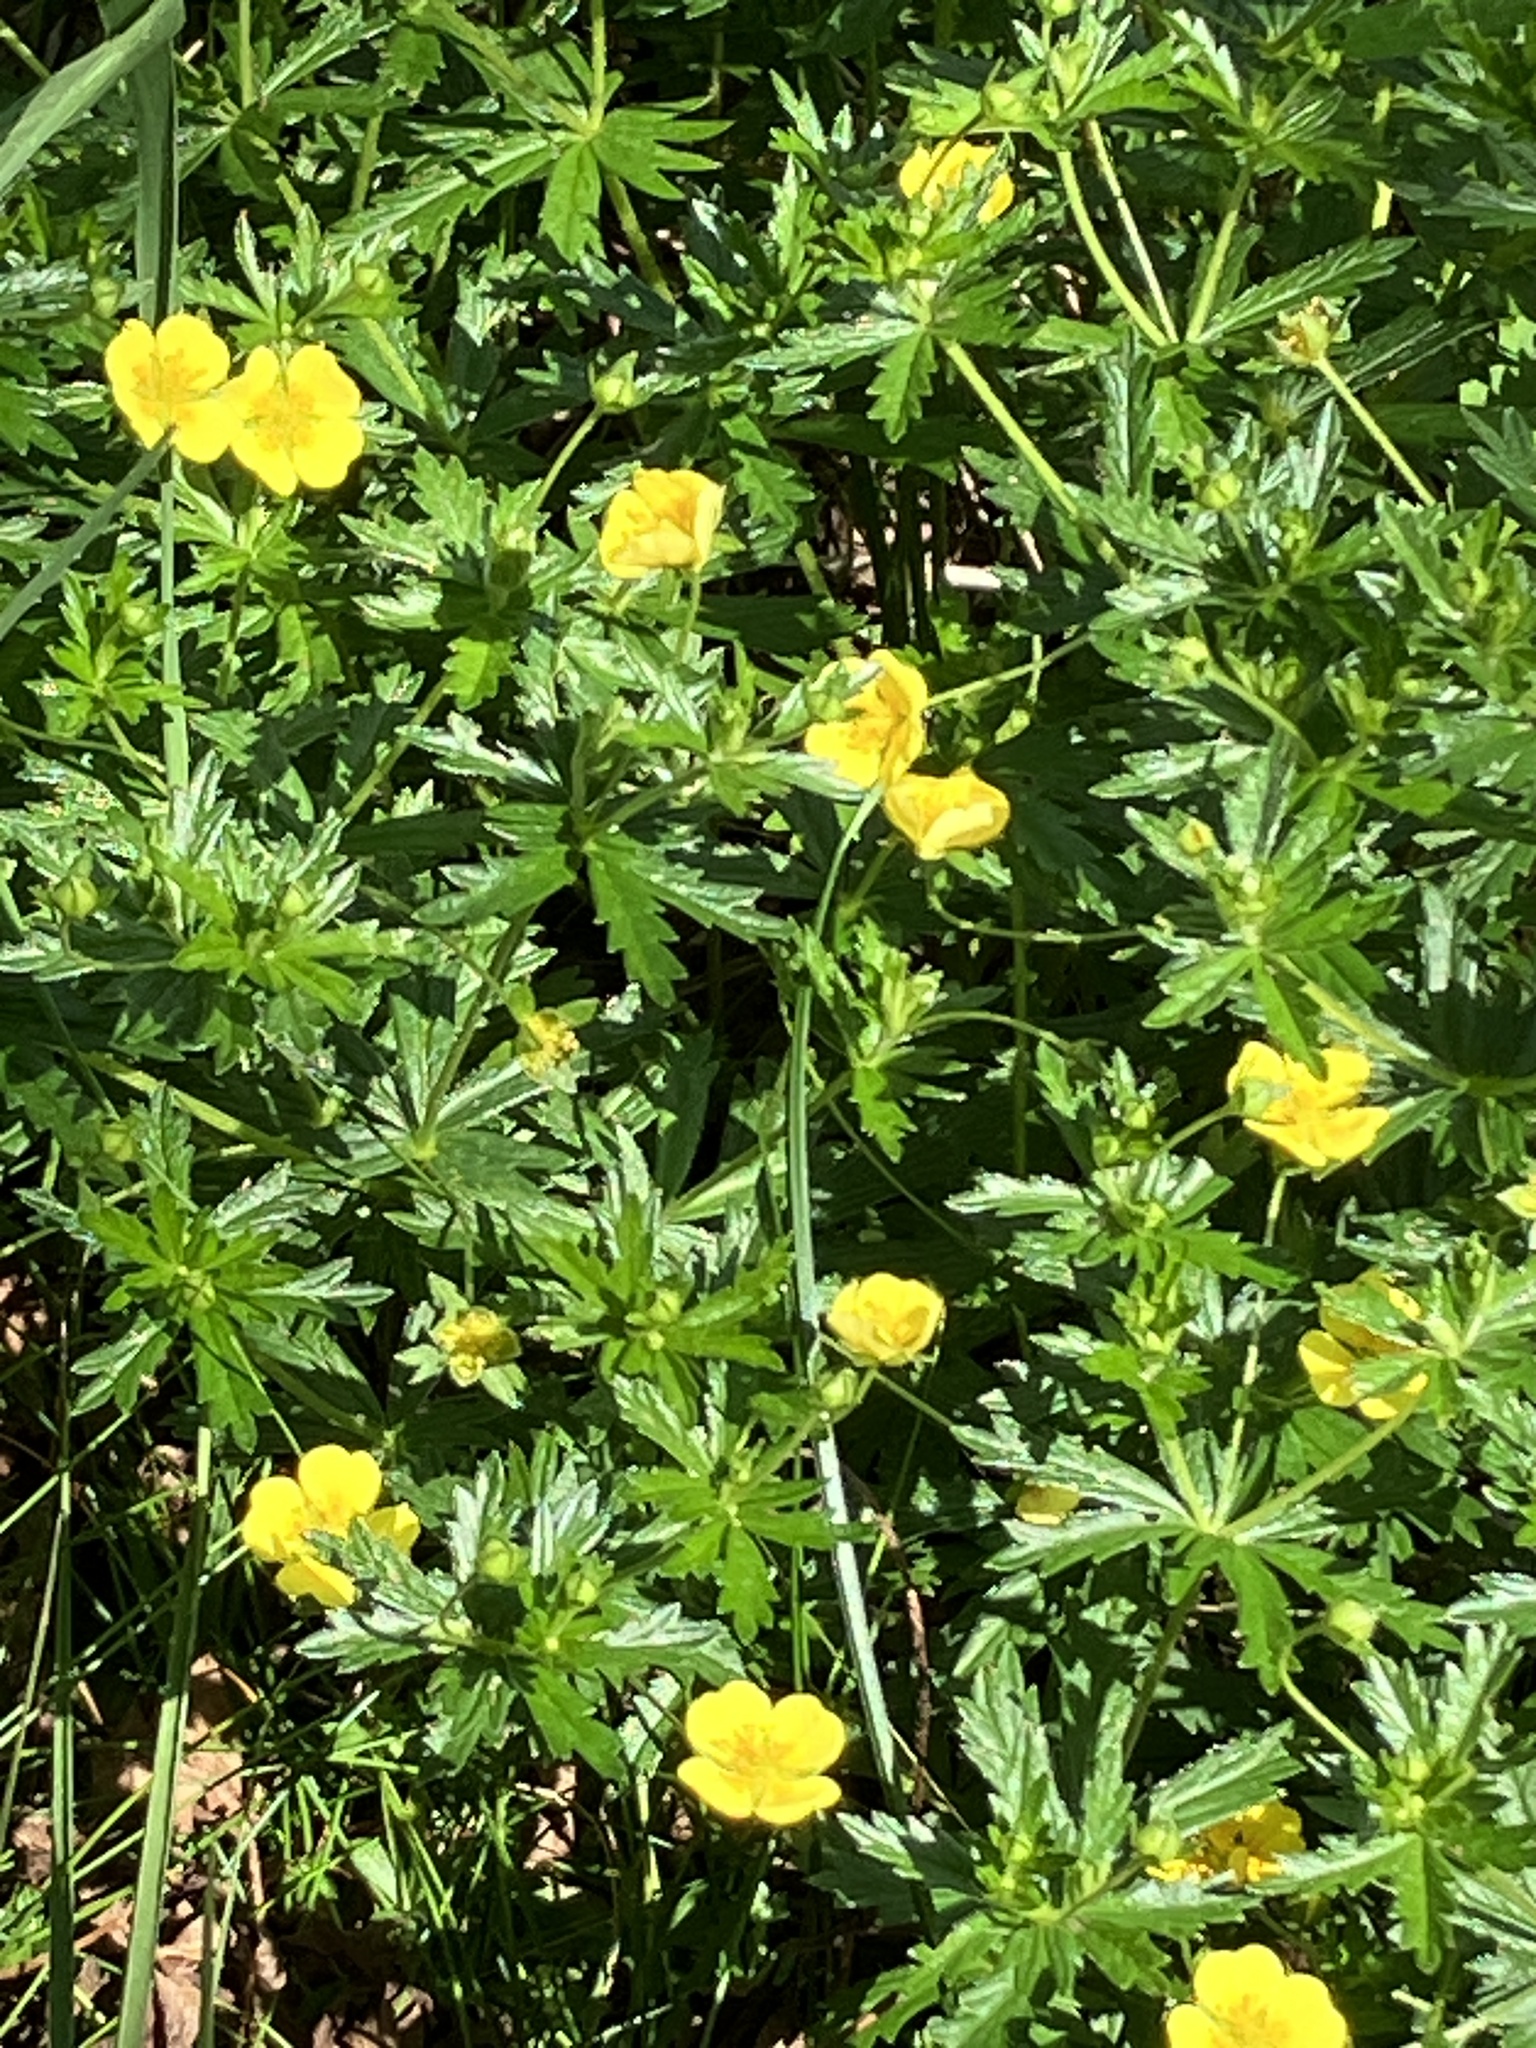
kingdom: Plantae
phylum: Tracheophyta
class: Magnoliopsida
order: Rosales
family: Rosaceae
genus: Potentilla
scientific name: Potentilla erecta
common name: Tormentil
